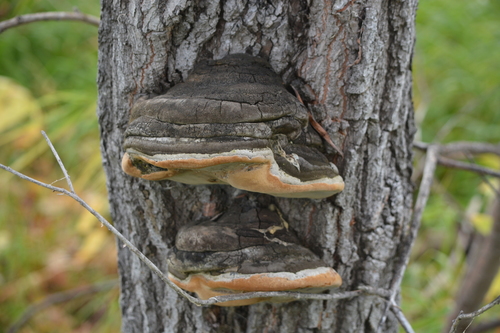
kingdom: Fungi
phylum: Basidiomycota
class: Agaricomycetes
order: Hymenochaetales
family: Hymenochaetaceae
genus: Phellinus
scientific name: Phellinus igniarius
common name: Willow bracket
